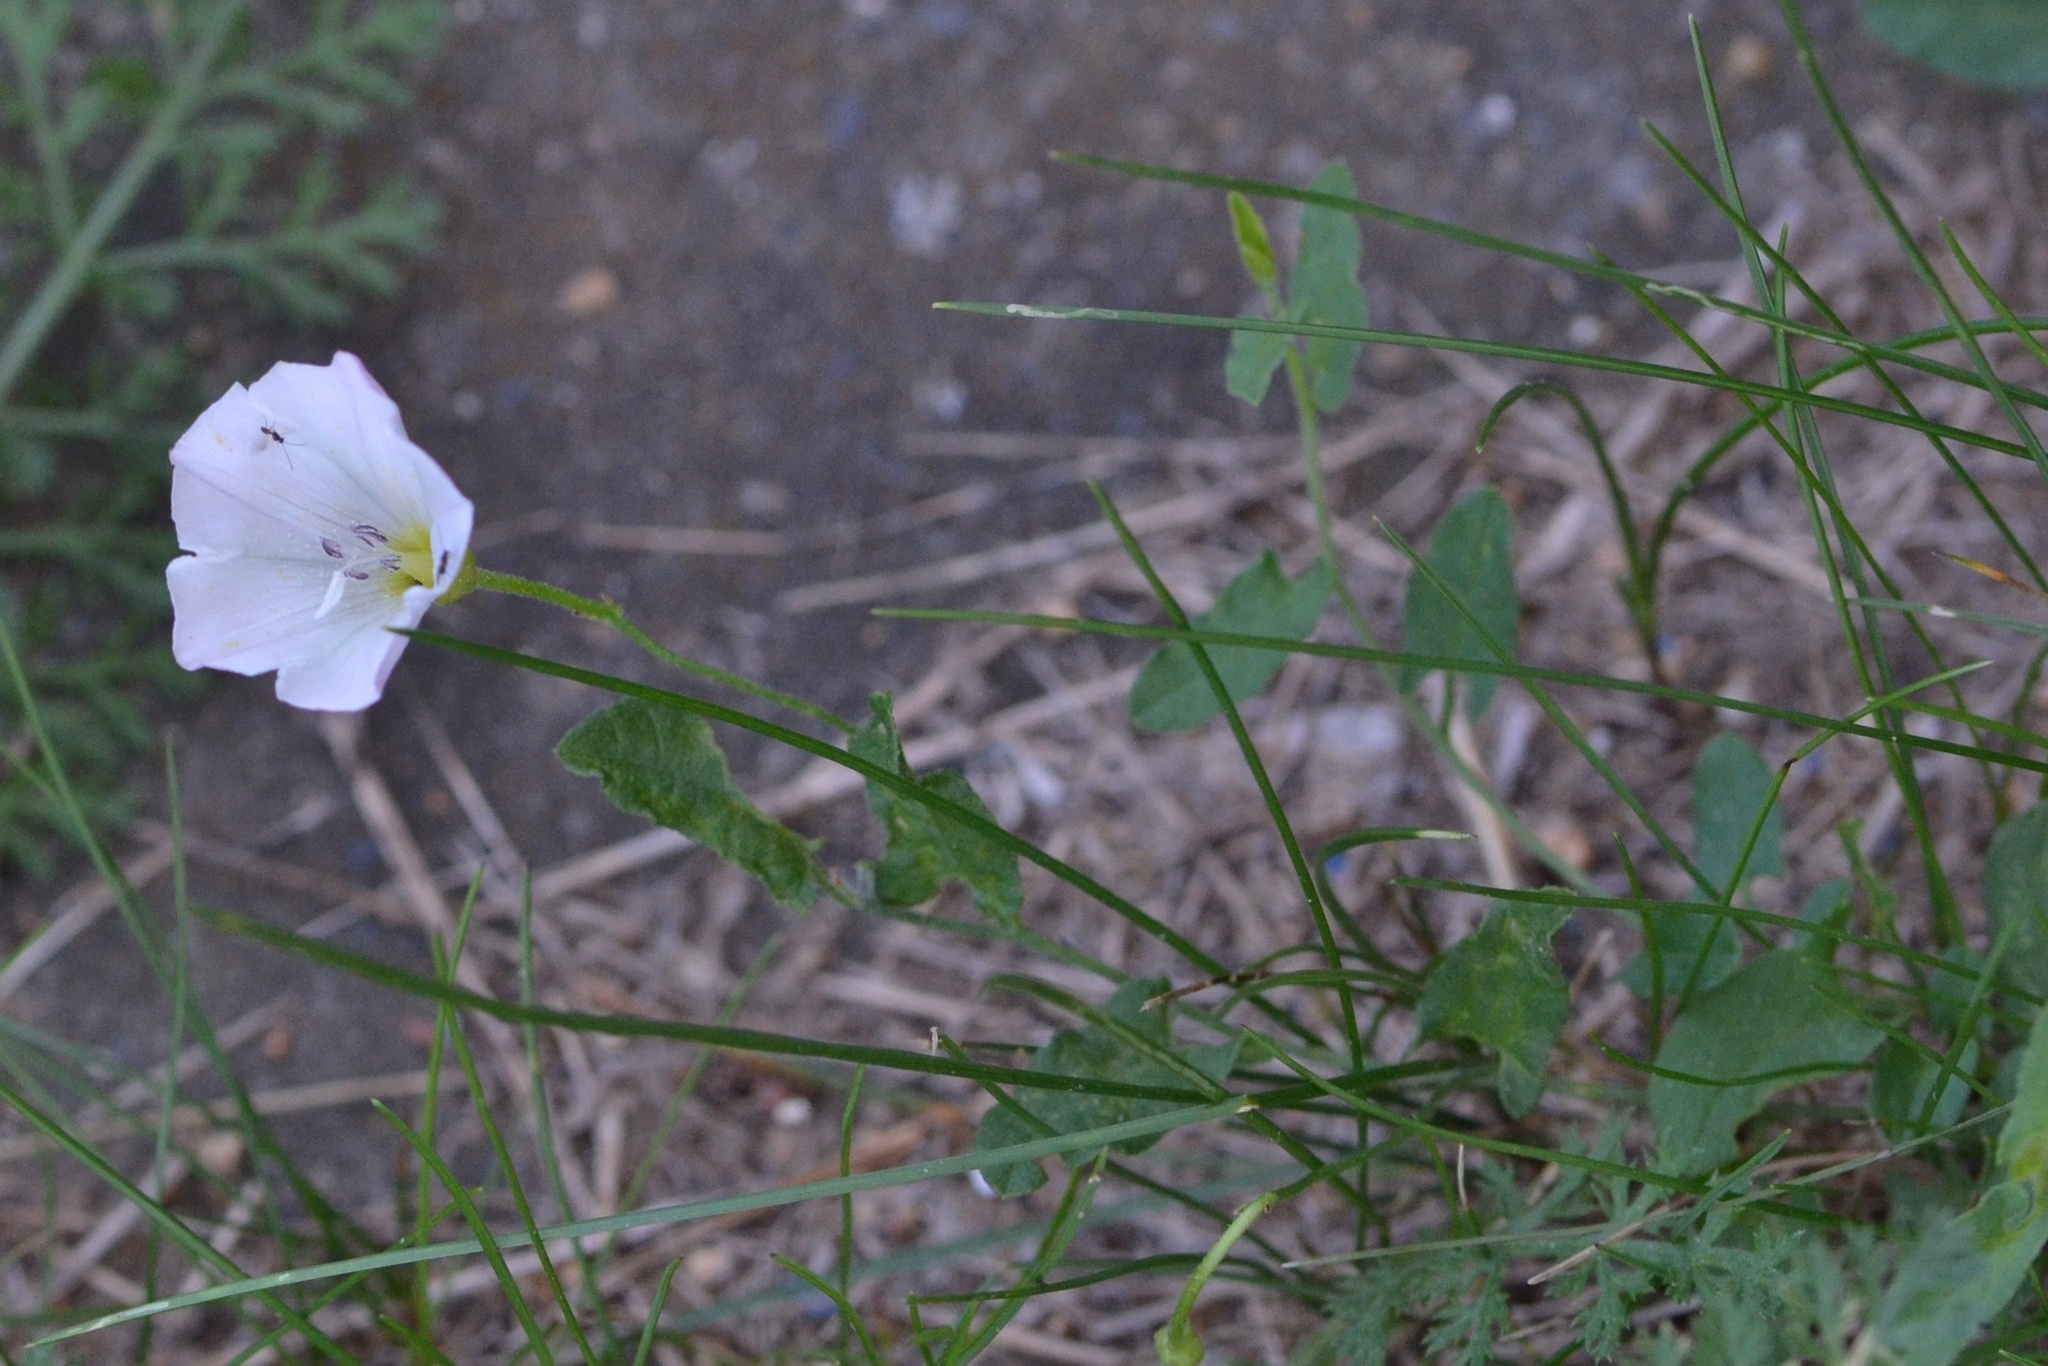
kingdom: Plantae
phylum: Tracheophyta
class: Magnoliopsida
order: Solanales
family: Convolvulaceae
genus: Convolvulus
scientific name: Convolvulus arvensis
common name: Field bindweed
